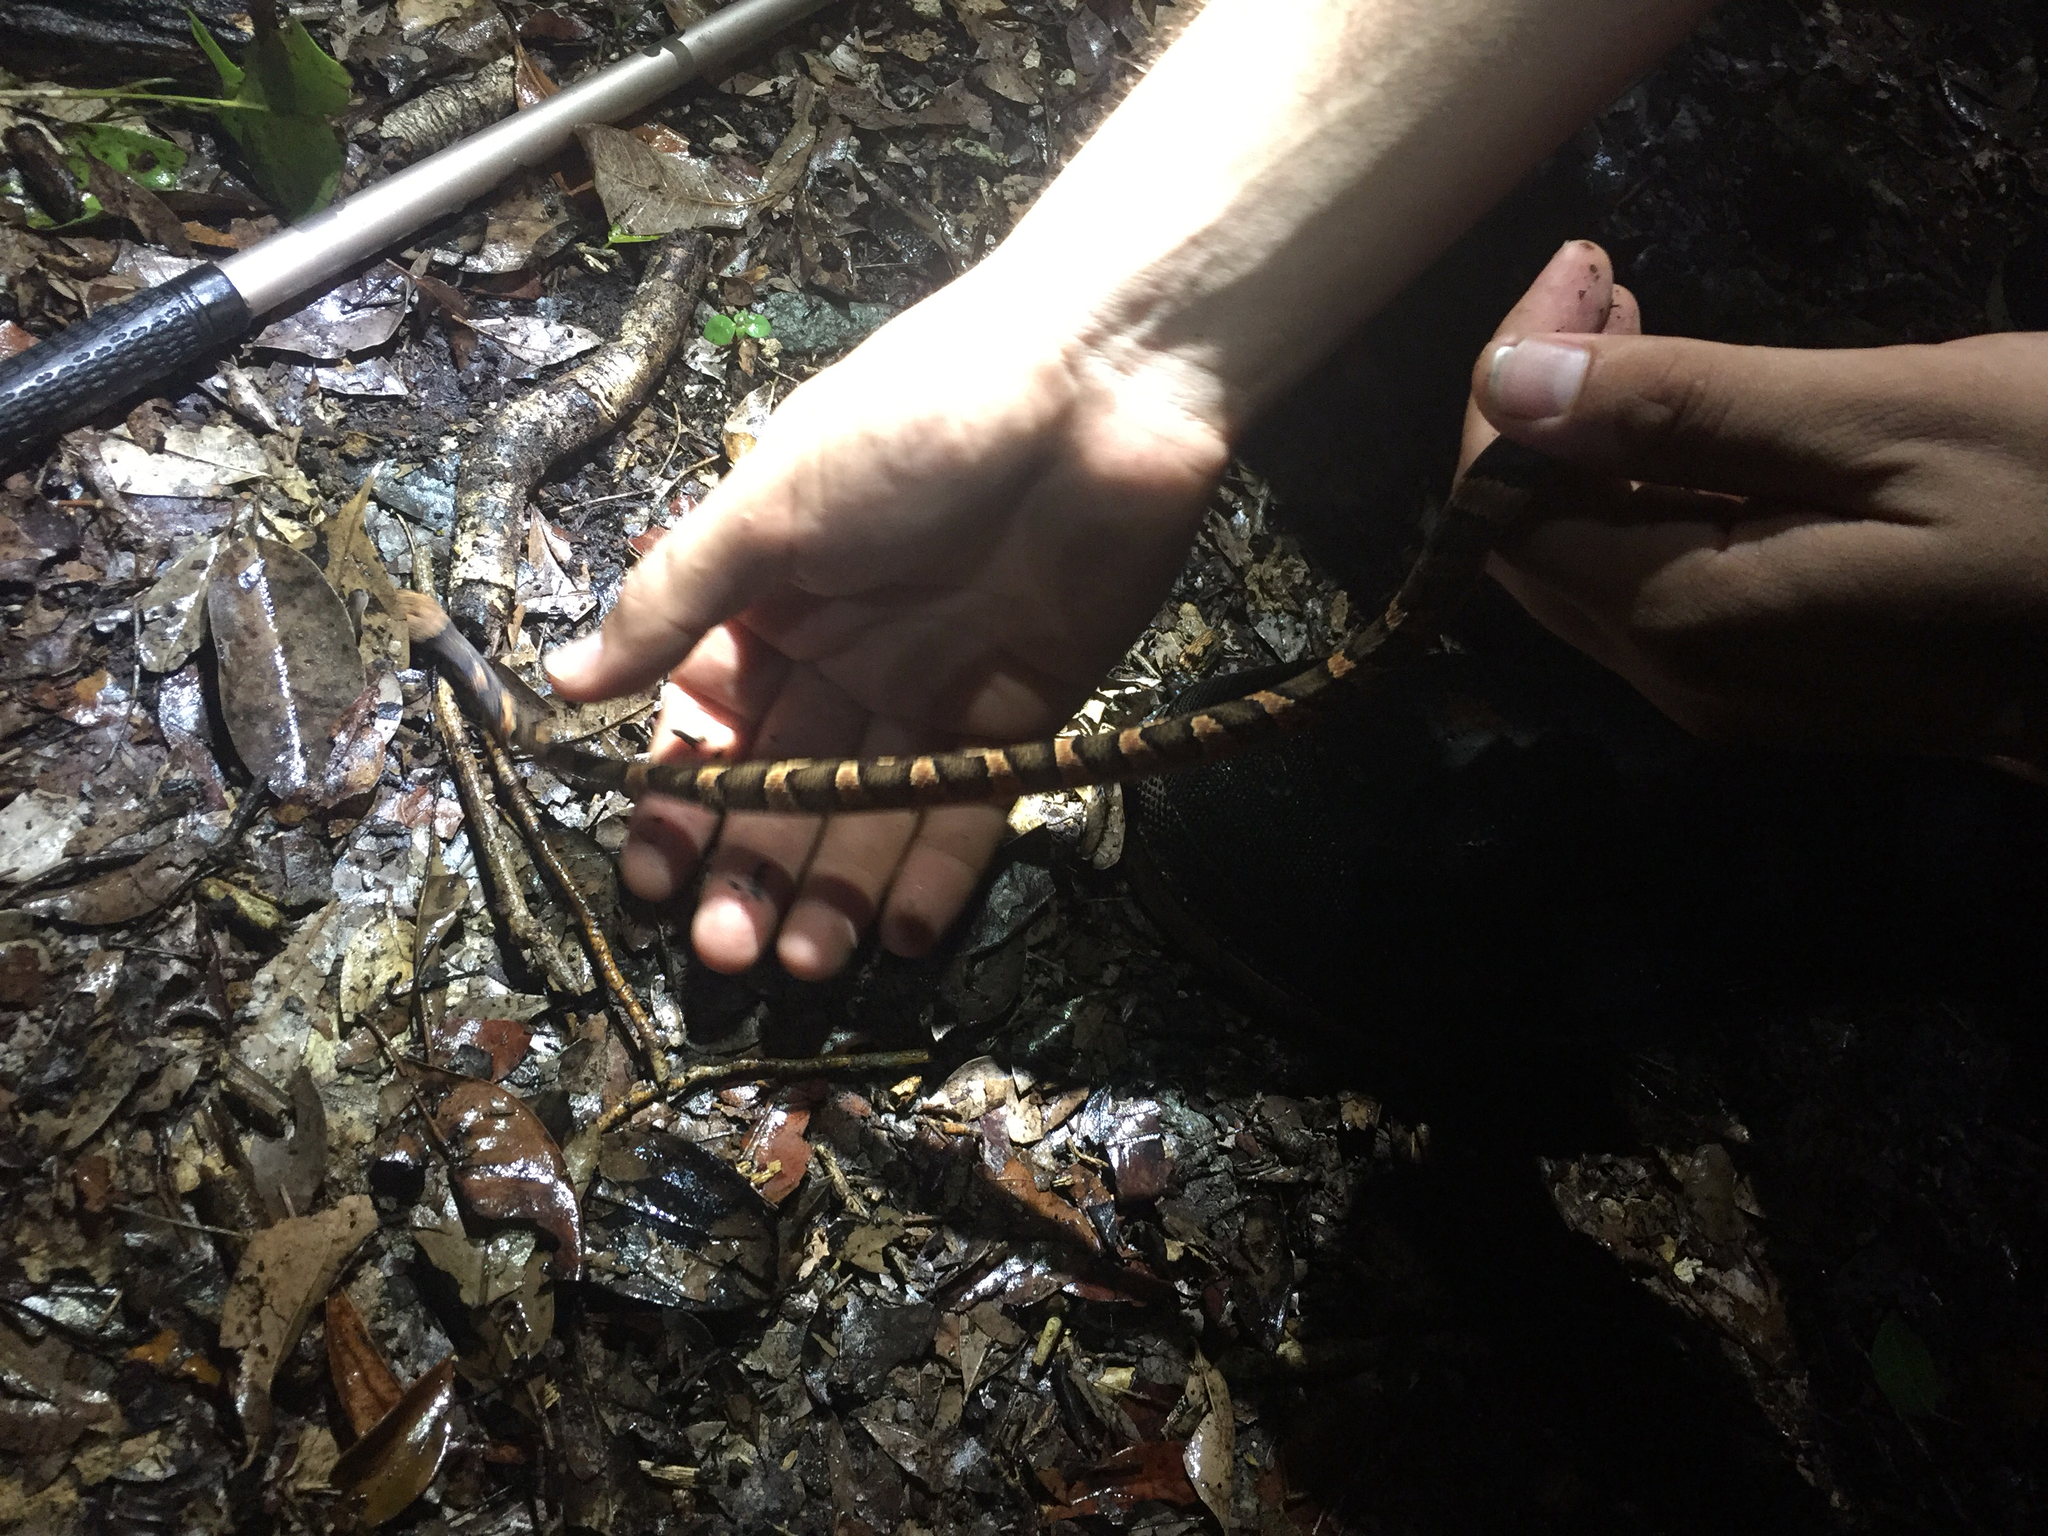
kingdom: Animalia
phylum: Chordata
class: Squamata
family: Colubridae
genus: Leptodeira
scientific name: Leptodeira frenata
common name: Rainforest cat-eyed snake
